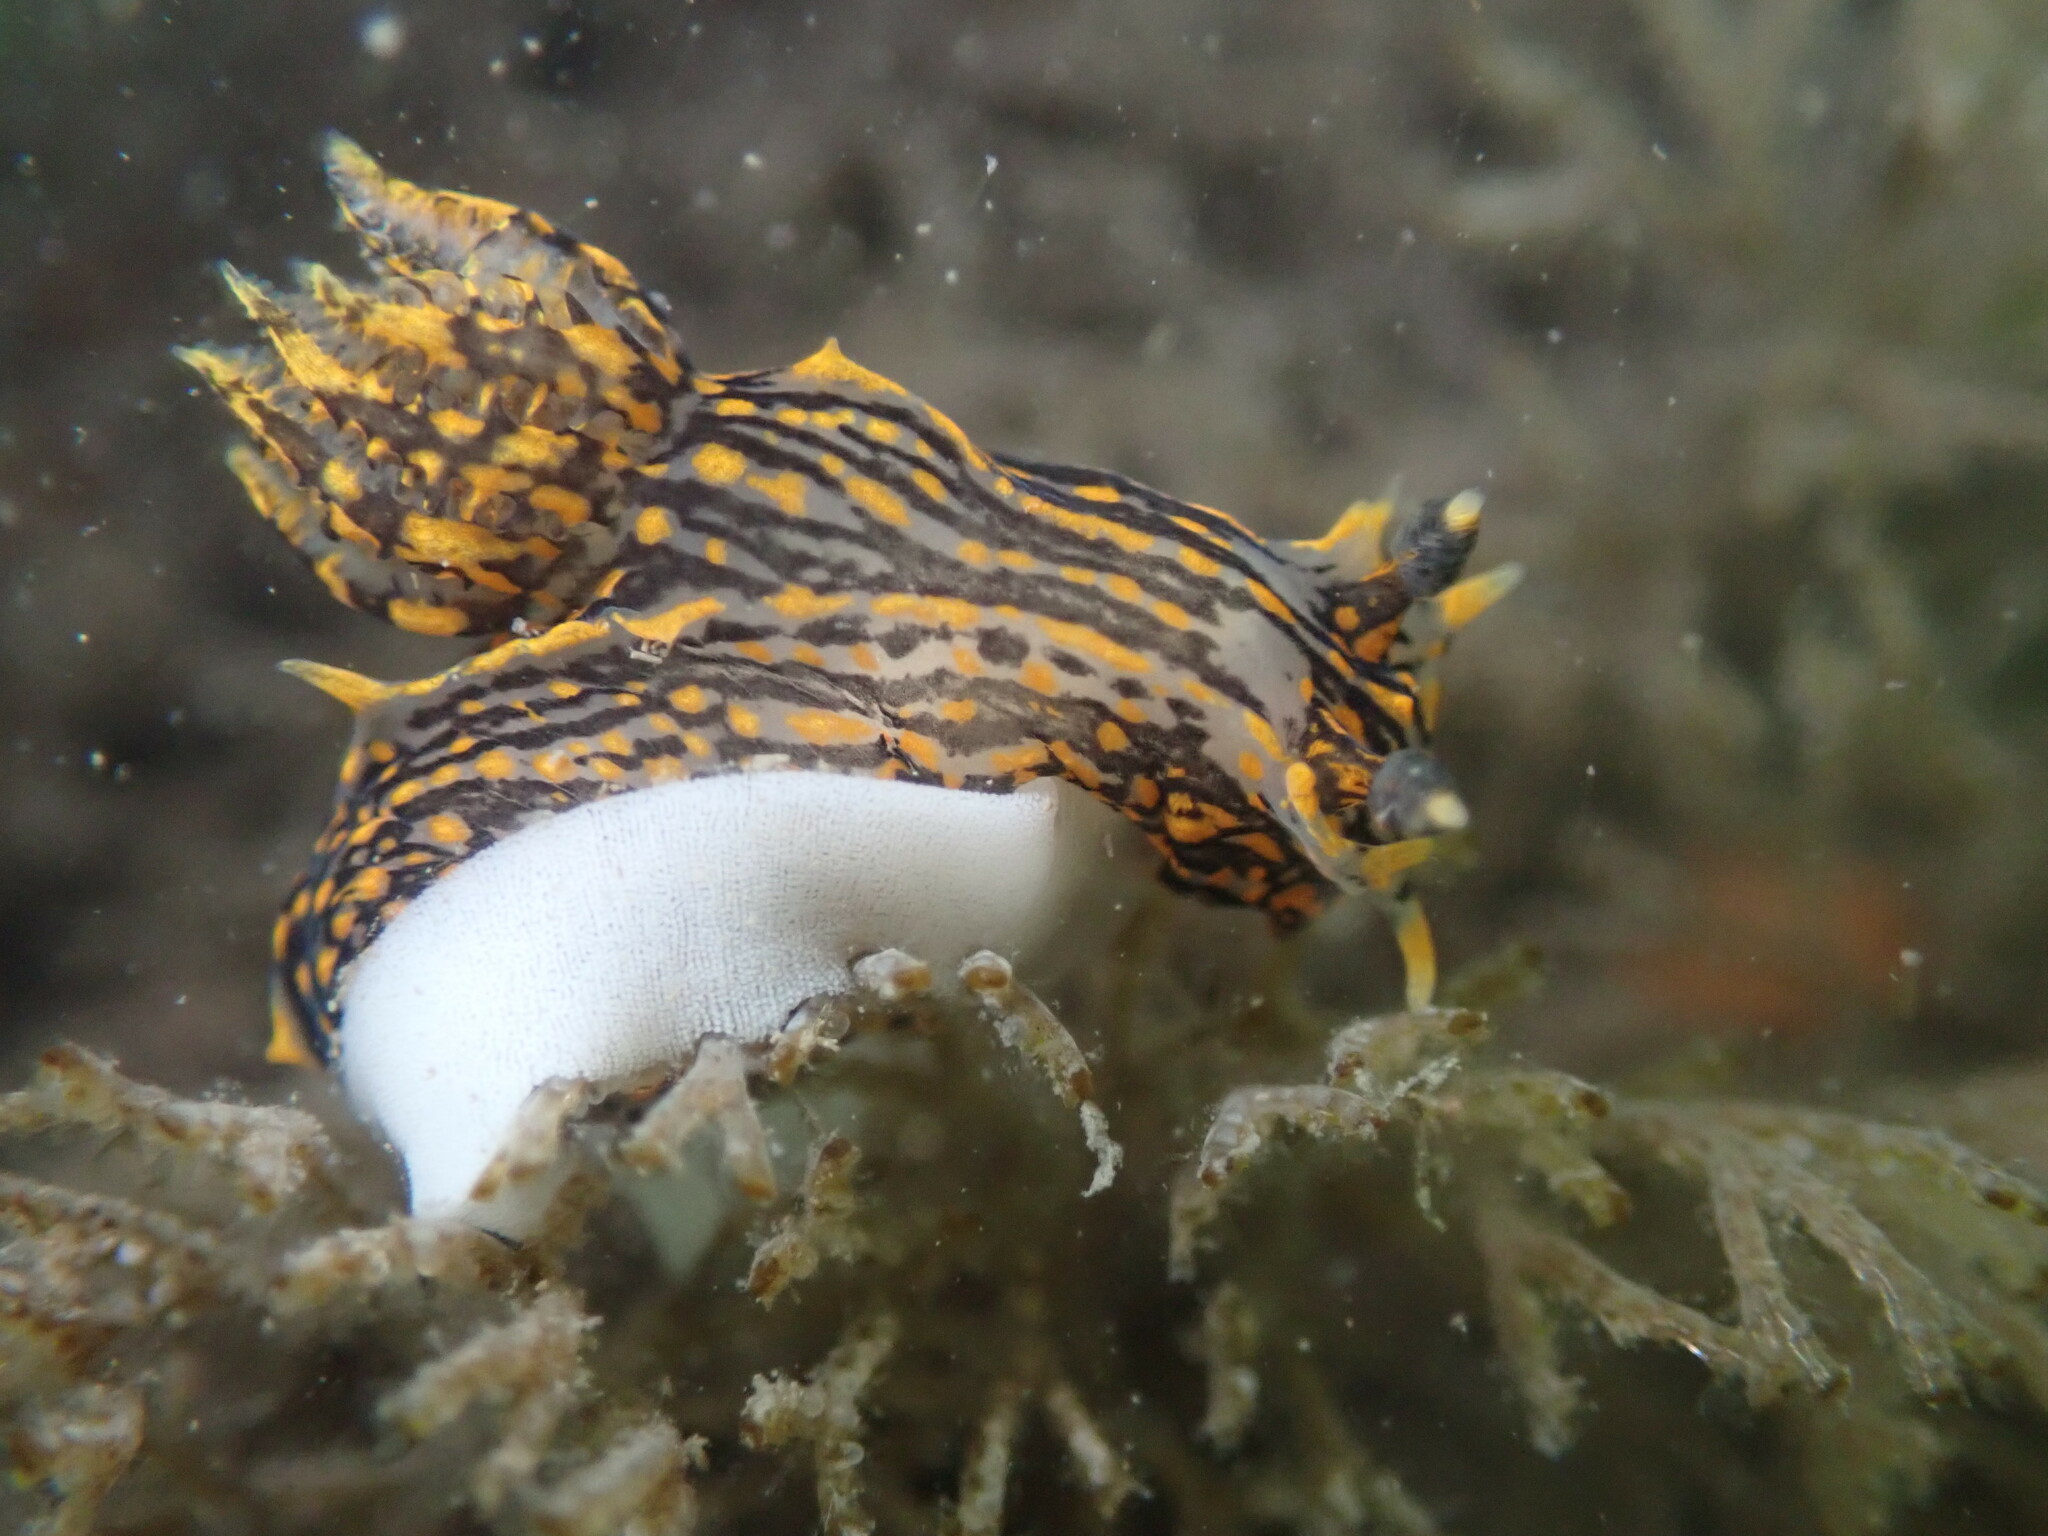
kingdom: Animalia
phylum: Mollusca
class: Gastropoda
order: Nudibranchia
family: Polyceridae
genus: Polycera
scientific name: Polycera atra
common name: Orange-spike polycera
